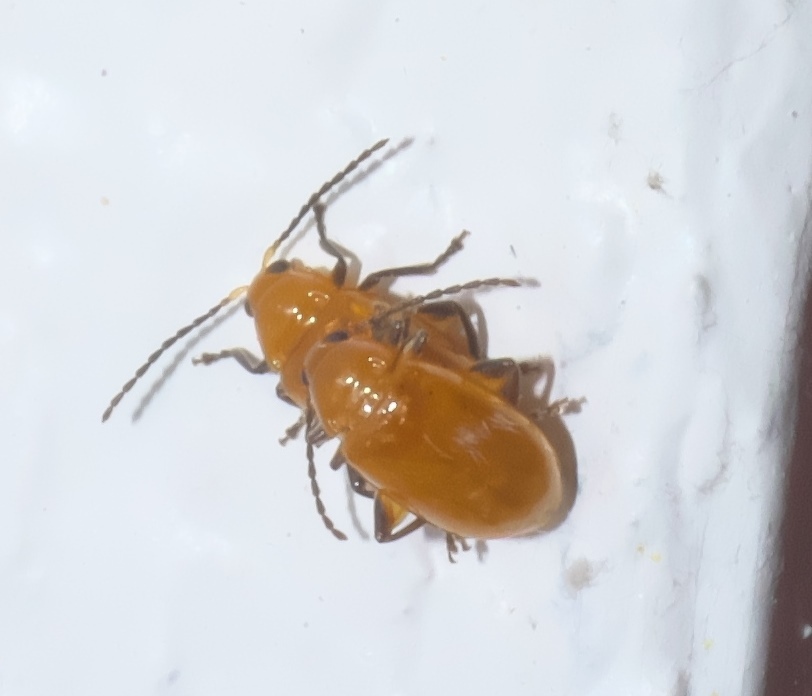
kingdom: Animalia
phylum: Arthropoda
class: Insecta
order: Coleoptera
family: Chrysomelidae
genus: Parchicola
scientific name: Parchicola tibialis
